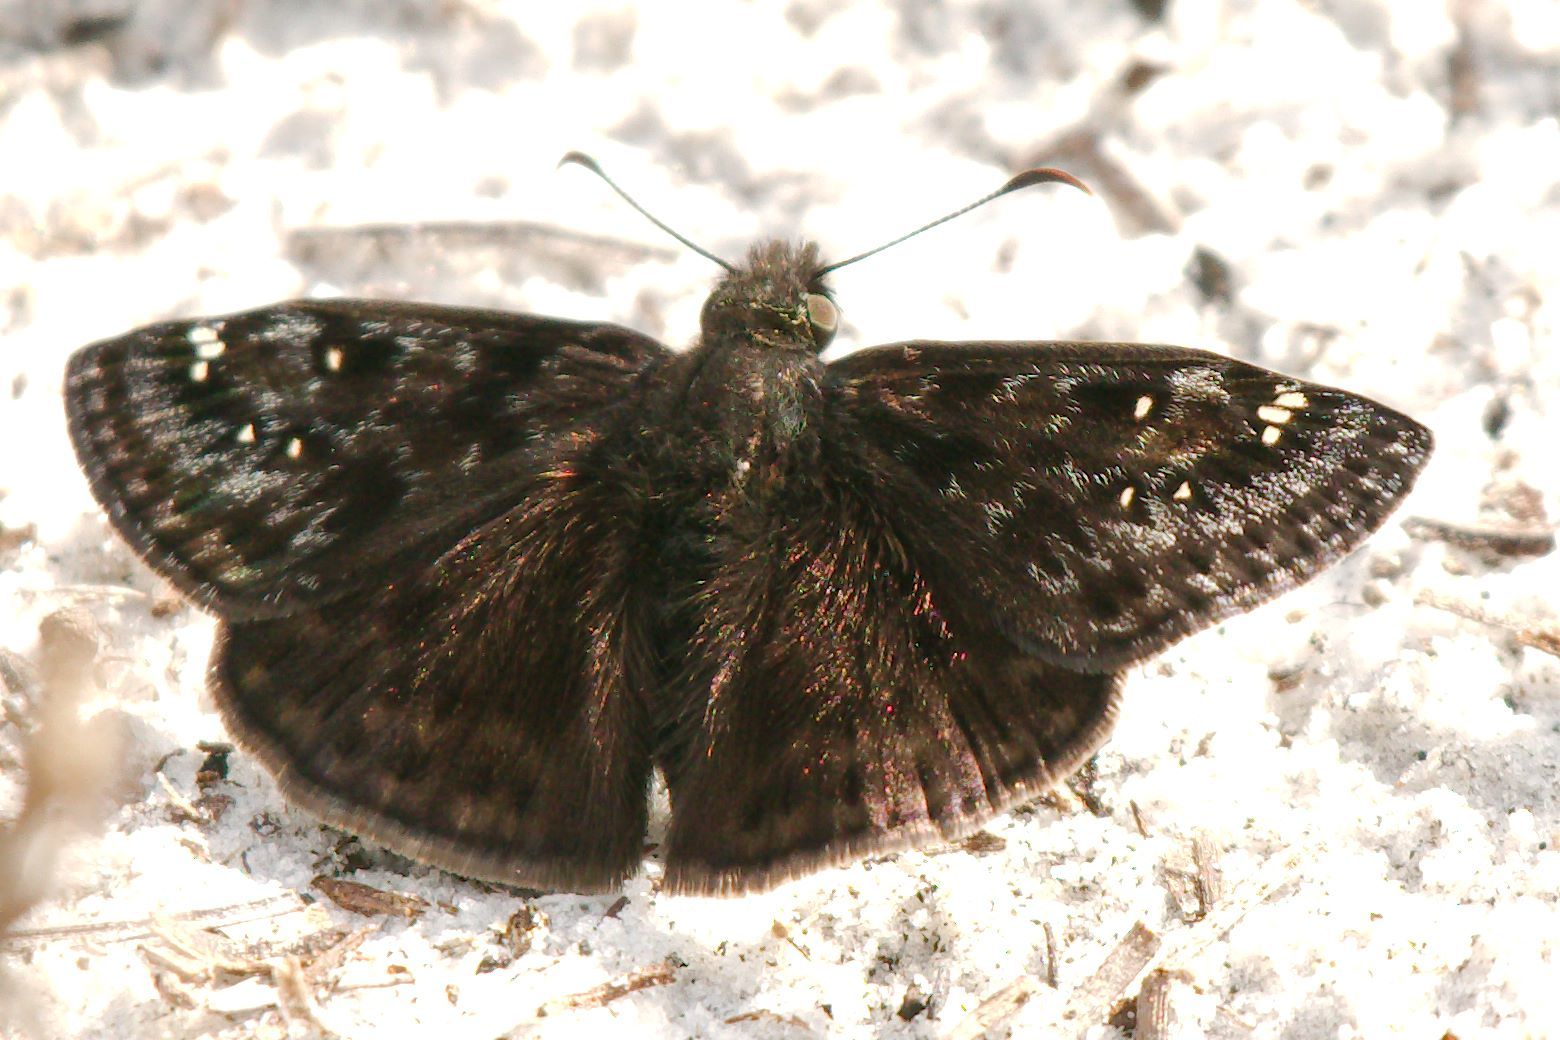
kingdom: Animalia
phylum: Arthropoda
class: Insecta
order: Lepidoptera
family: Hesperiidae
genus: Erynnis
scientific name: Erynnis juvenalis
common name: Juvenal's duskywing
